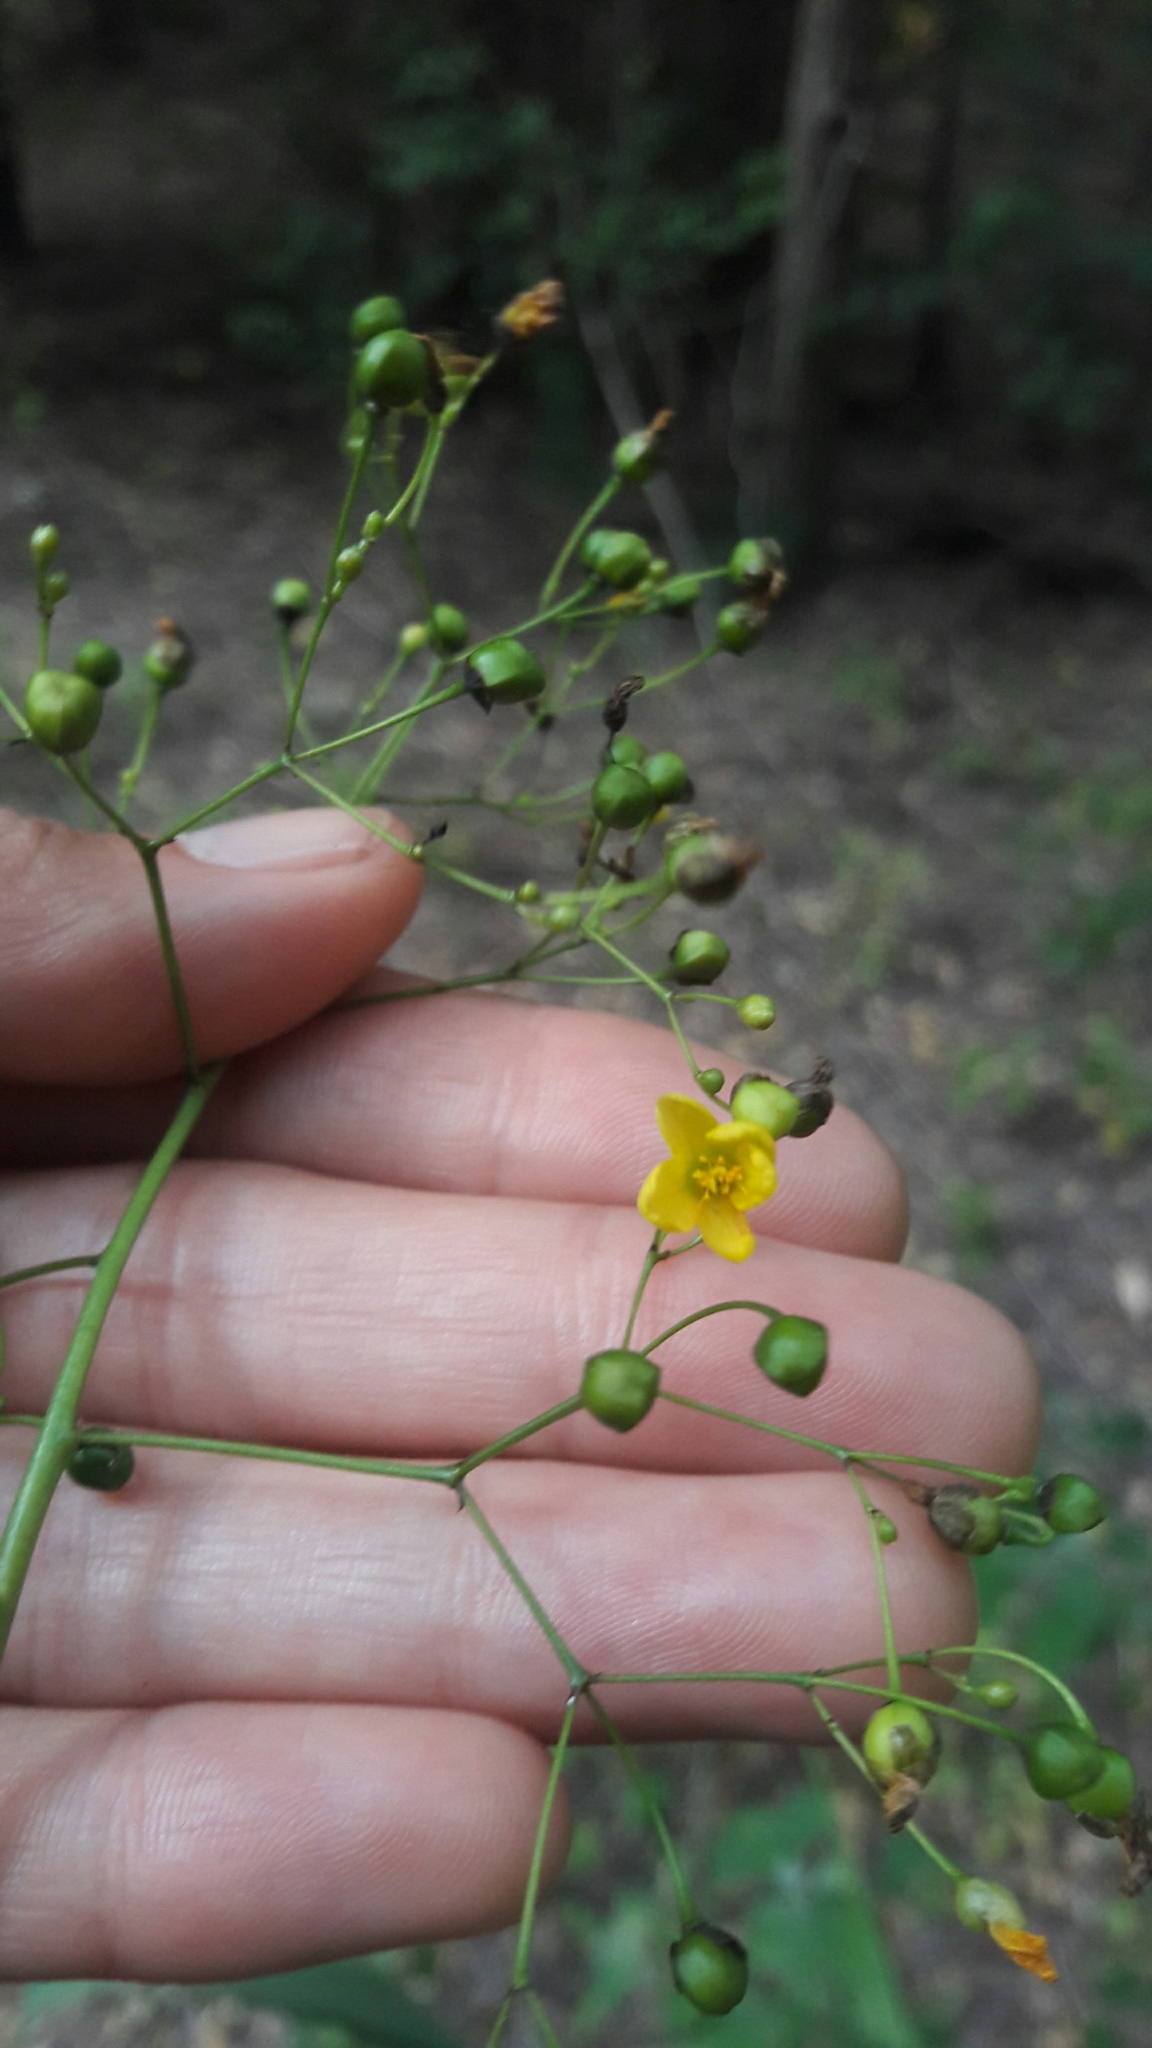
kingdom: Plantae
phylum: Tracheophyta
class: Magnoliopsida
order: Caryophyllales
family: Talinaceae
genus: Talinum
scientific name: Talinum paniculatum
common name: Jewels of opar
